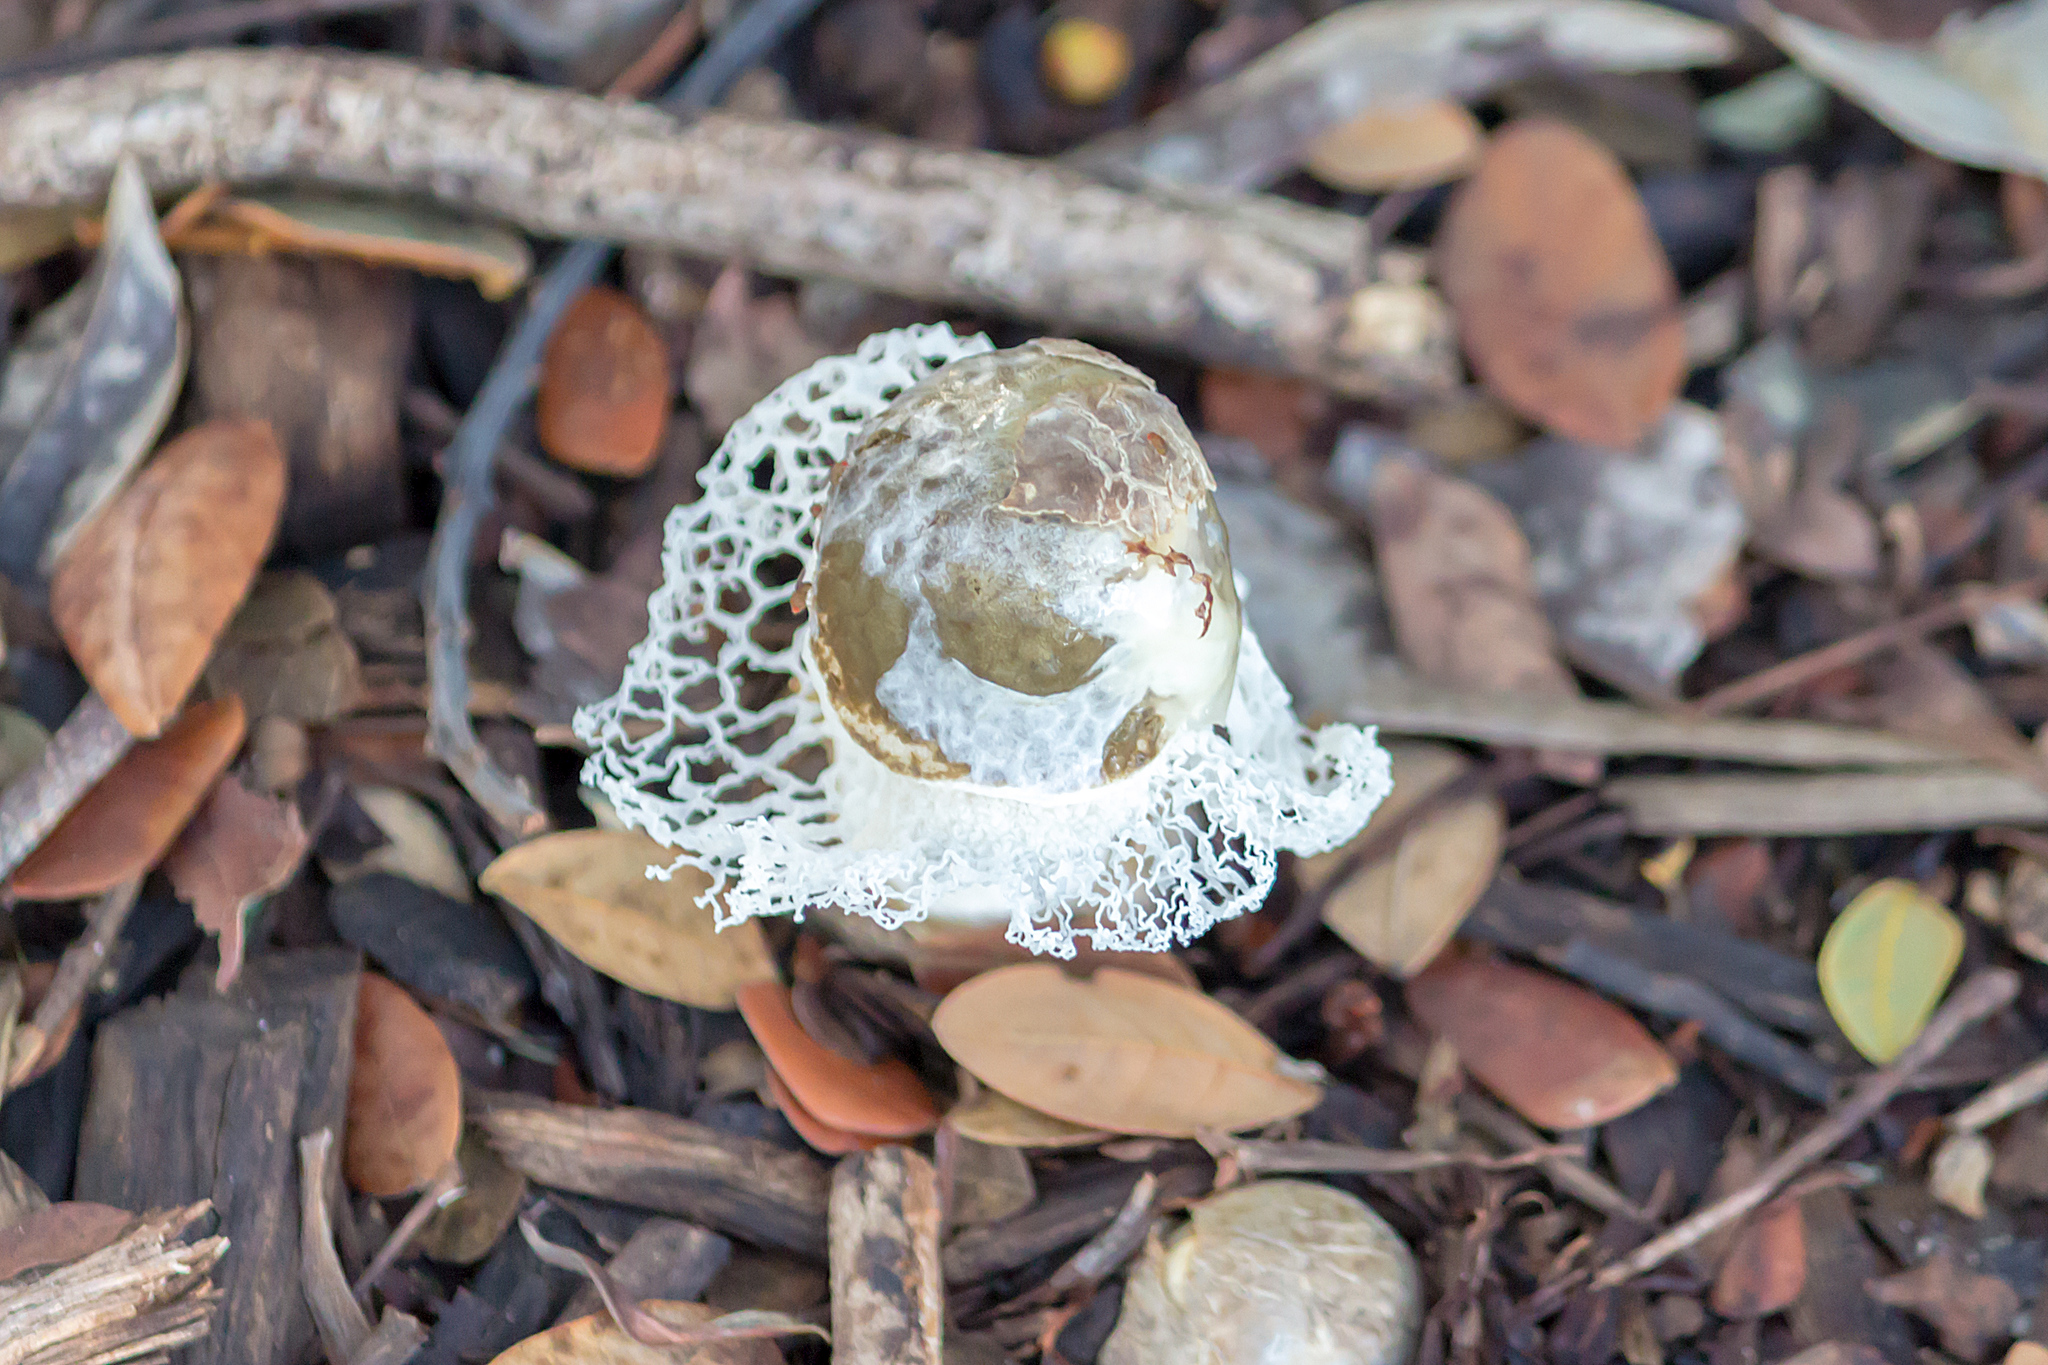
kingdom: Fungi
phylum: Basidiomycota
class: Agaricomycetes
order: Phallales
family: Phallaceae
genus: Phallus
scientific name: Phallus merulinus
